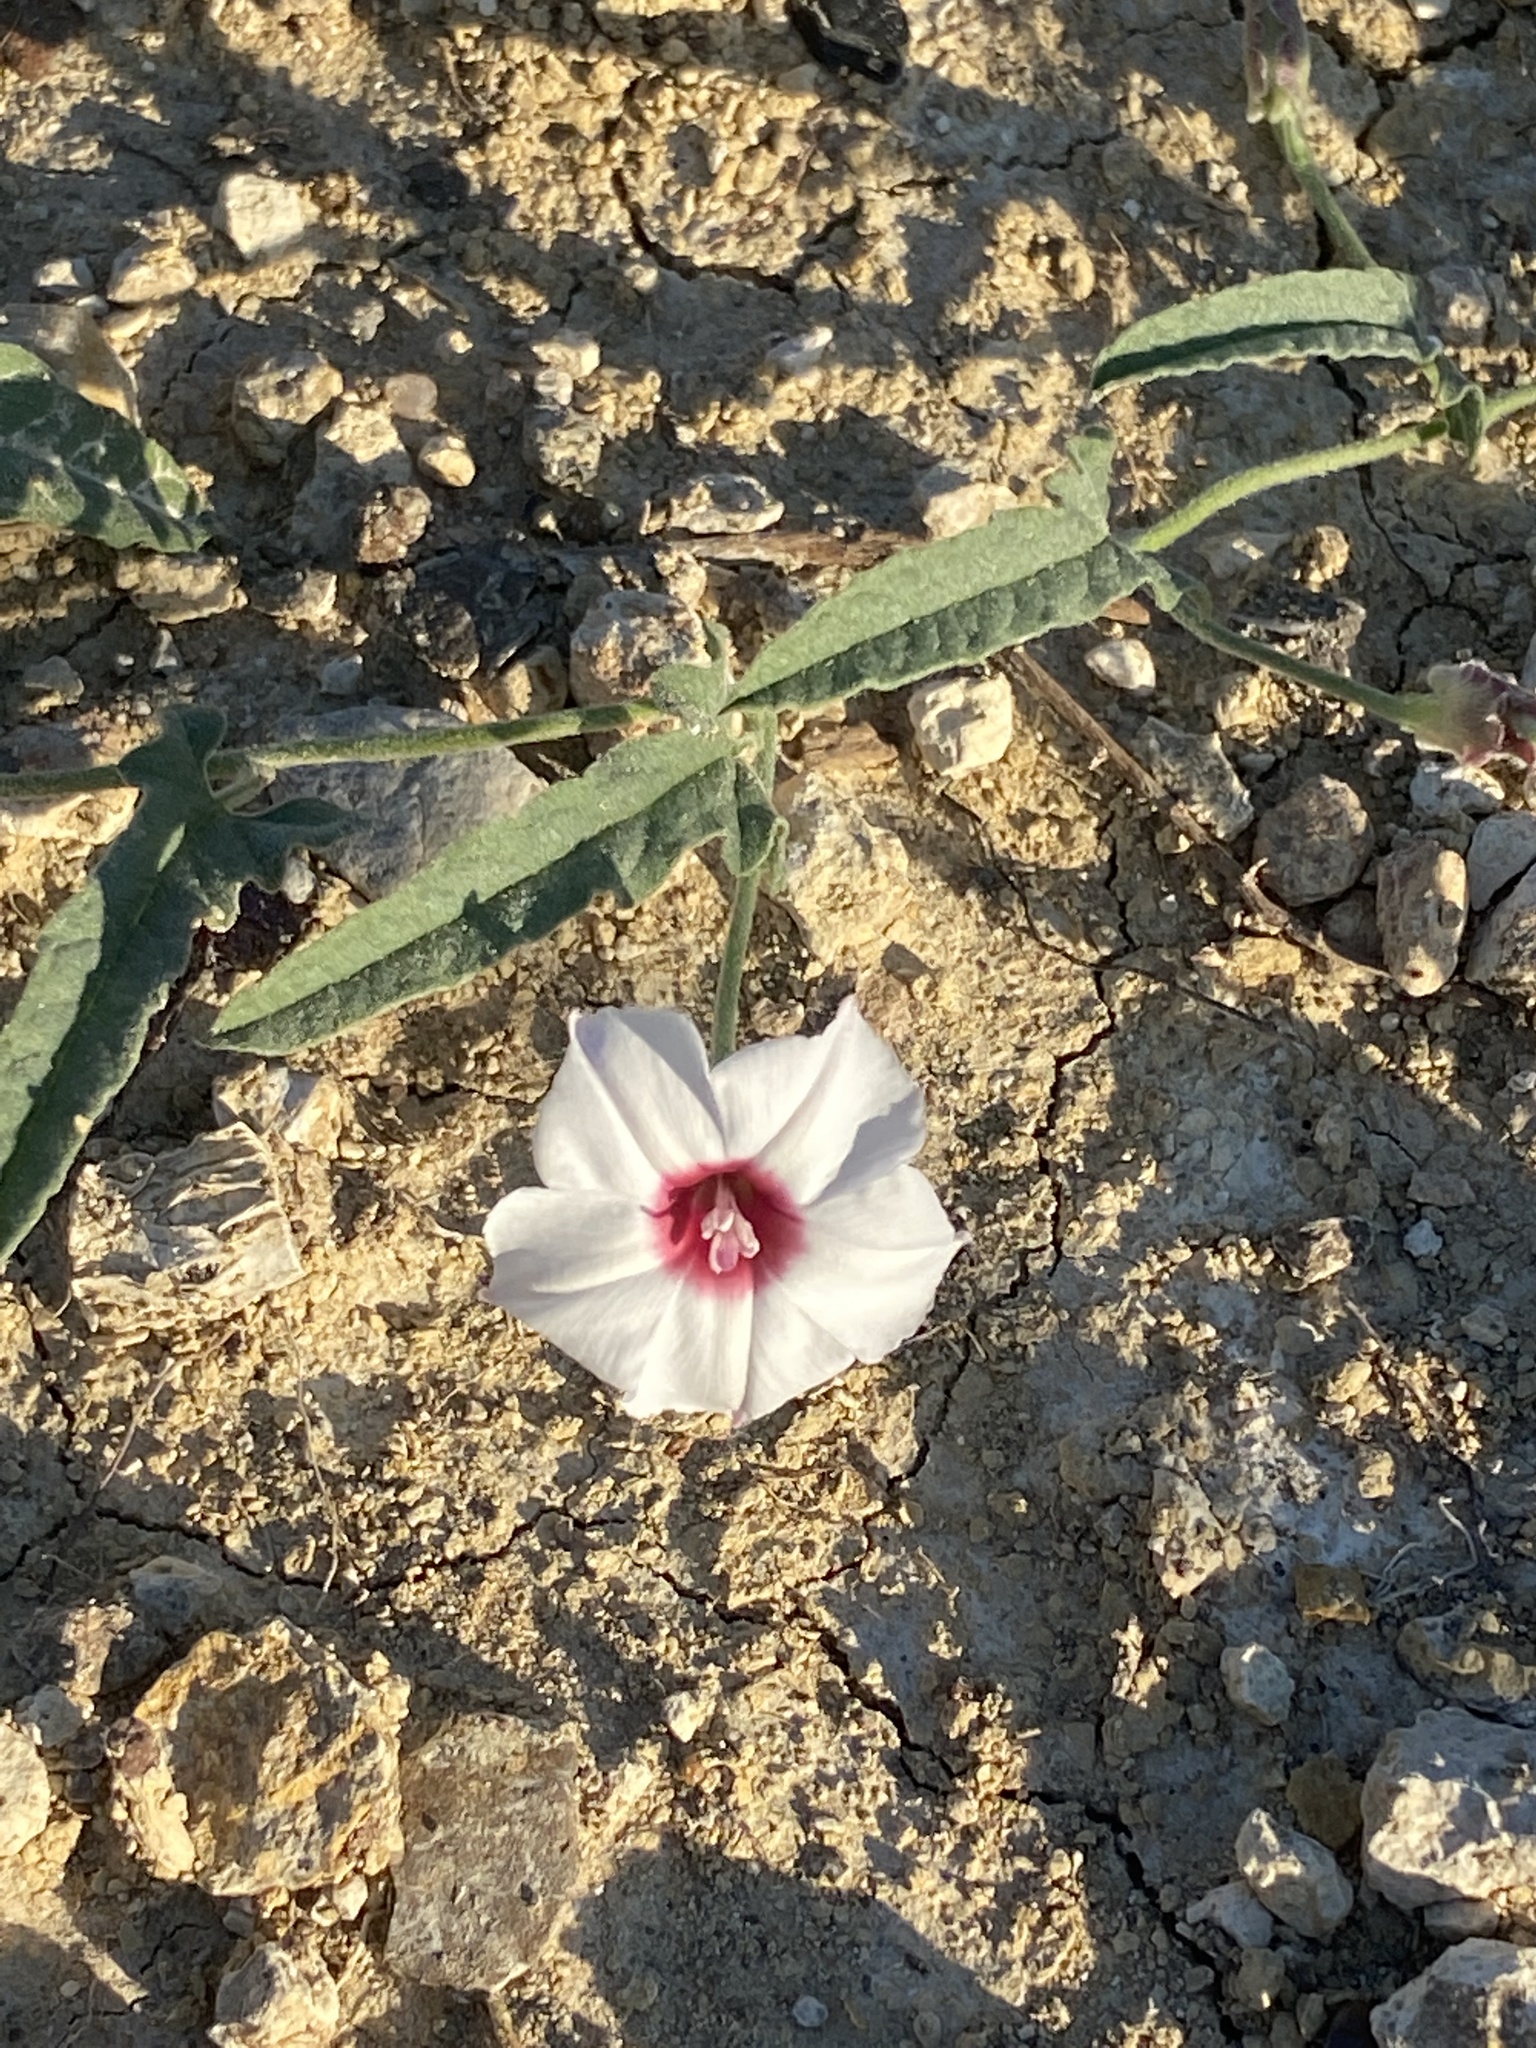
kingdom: Plantae
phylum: Tracheophyta
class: Magnoliopsida
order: Solanales
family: Convolvulaceae
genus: Convolvulus
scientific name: Convolvulus equitans
